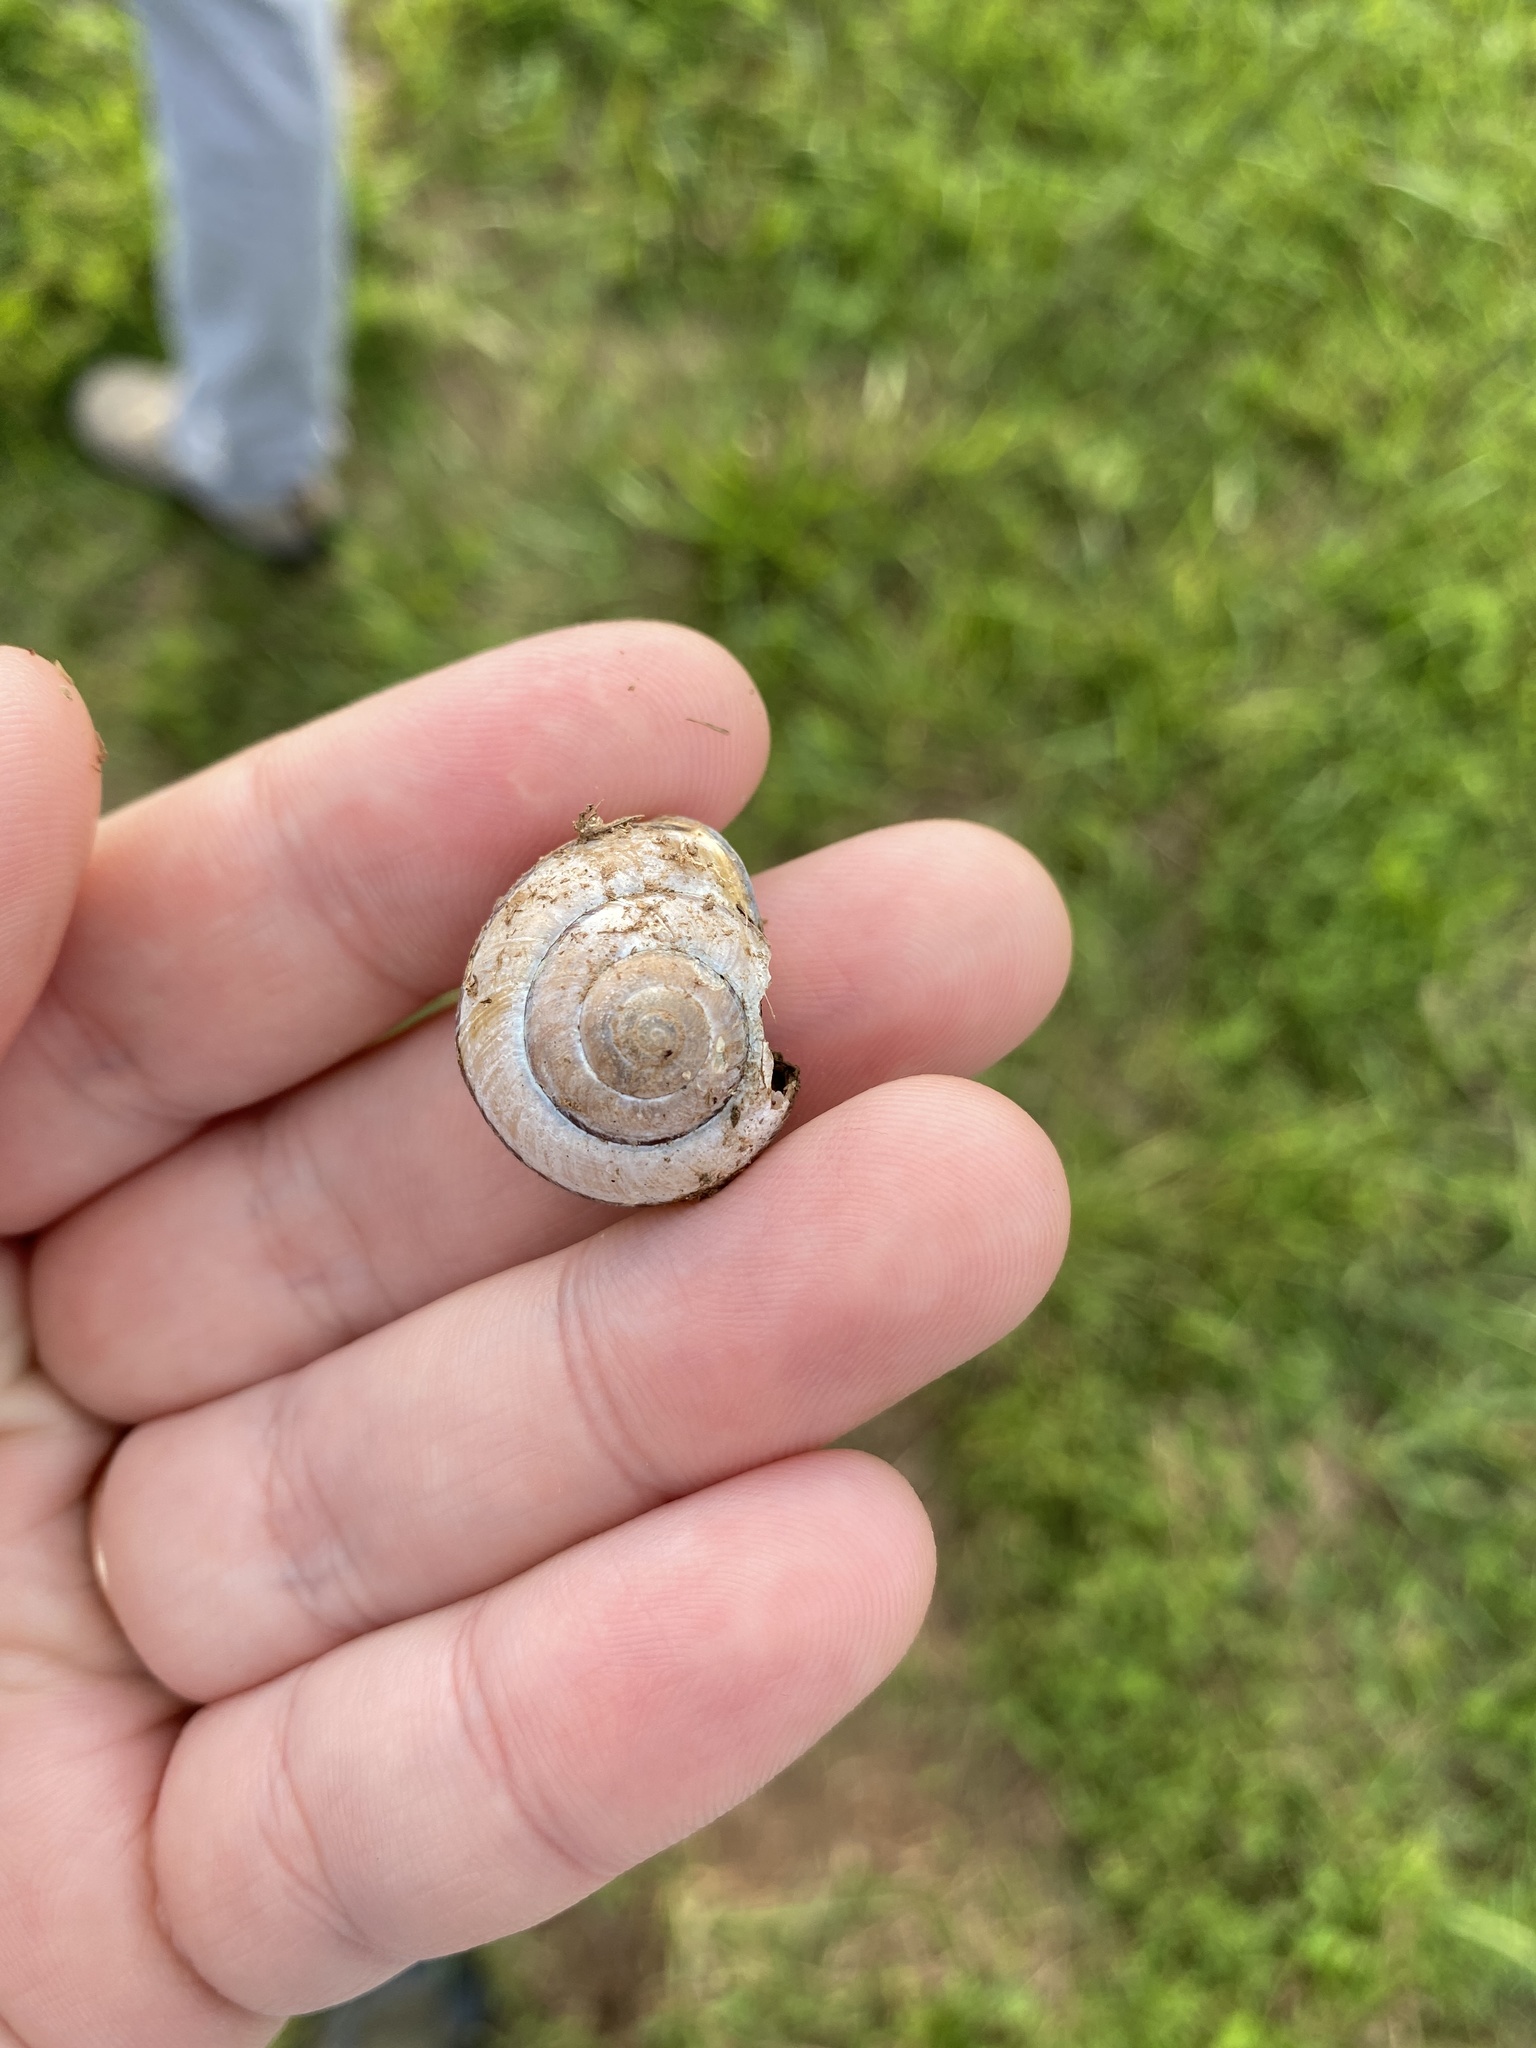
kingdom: Animalia
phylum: Mollusca
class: Gastropoda
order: Stylommatophora
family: Helicidae
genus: Cepaea
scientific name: Cepaea nemoralis
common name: Grovesnail
